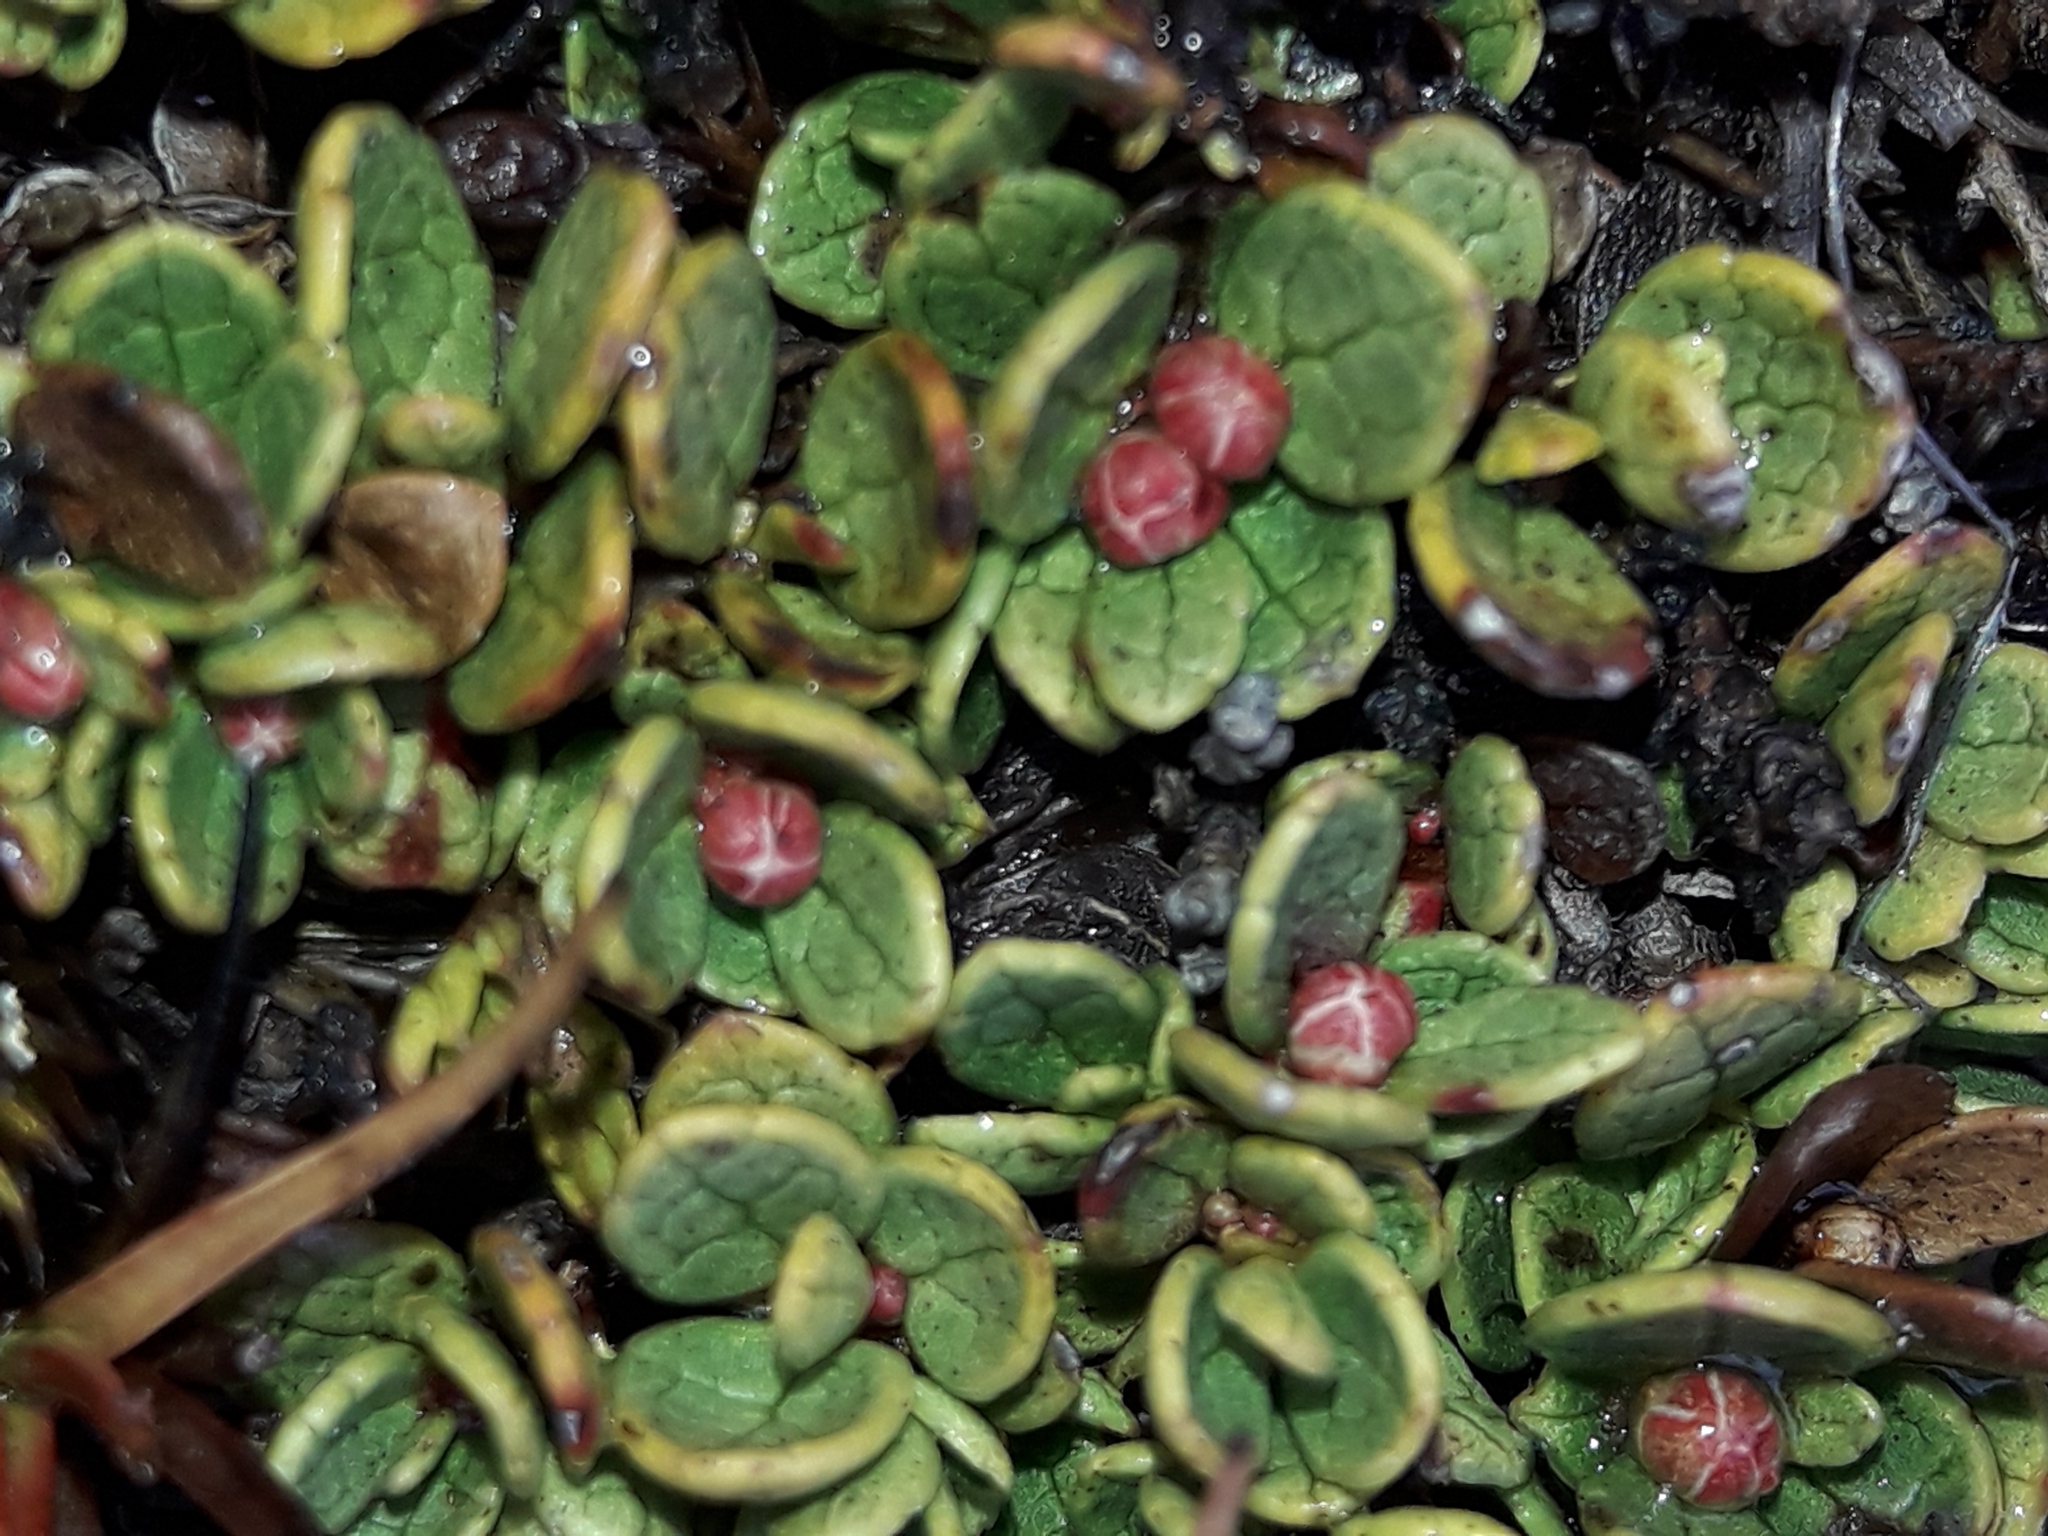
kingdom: Plantae
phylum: Tracheophyta
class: Magnoliopsida
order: Ericales
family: Ericaceae
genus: Gaultheria
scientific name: Gaultheria nubicola
